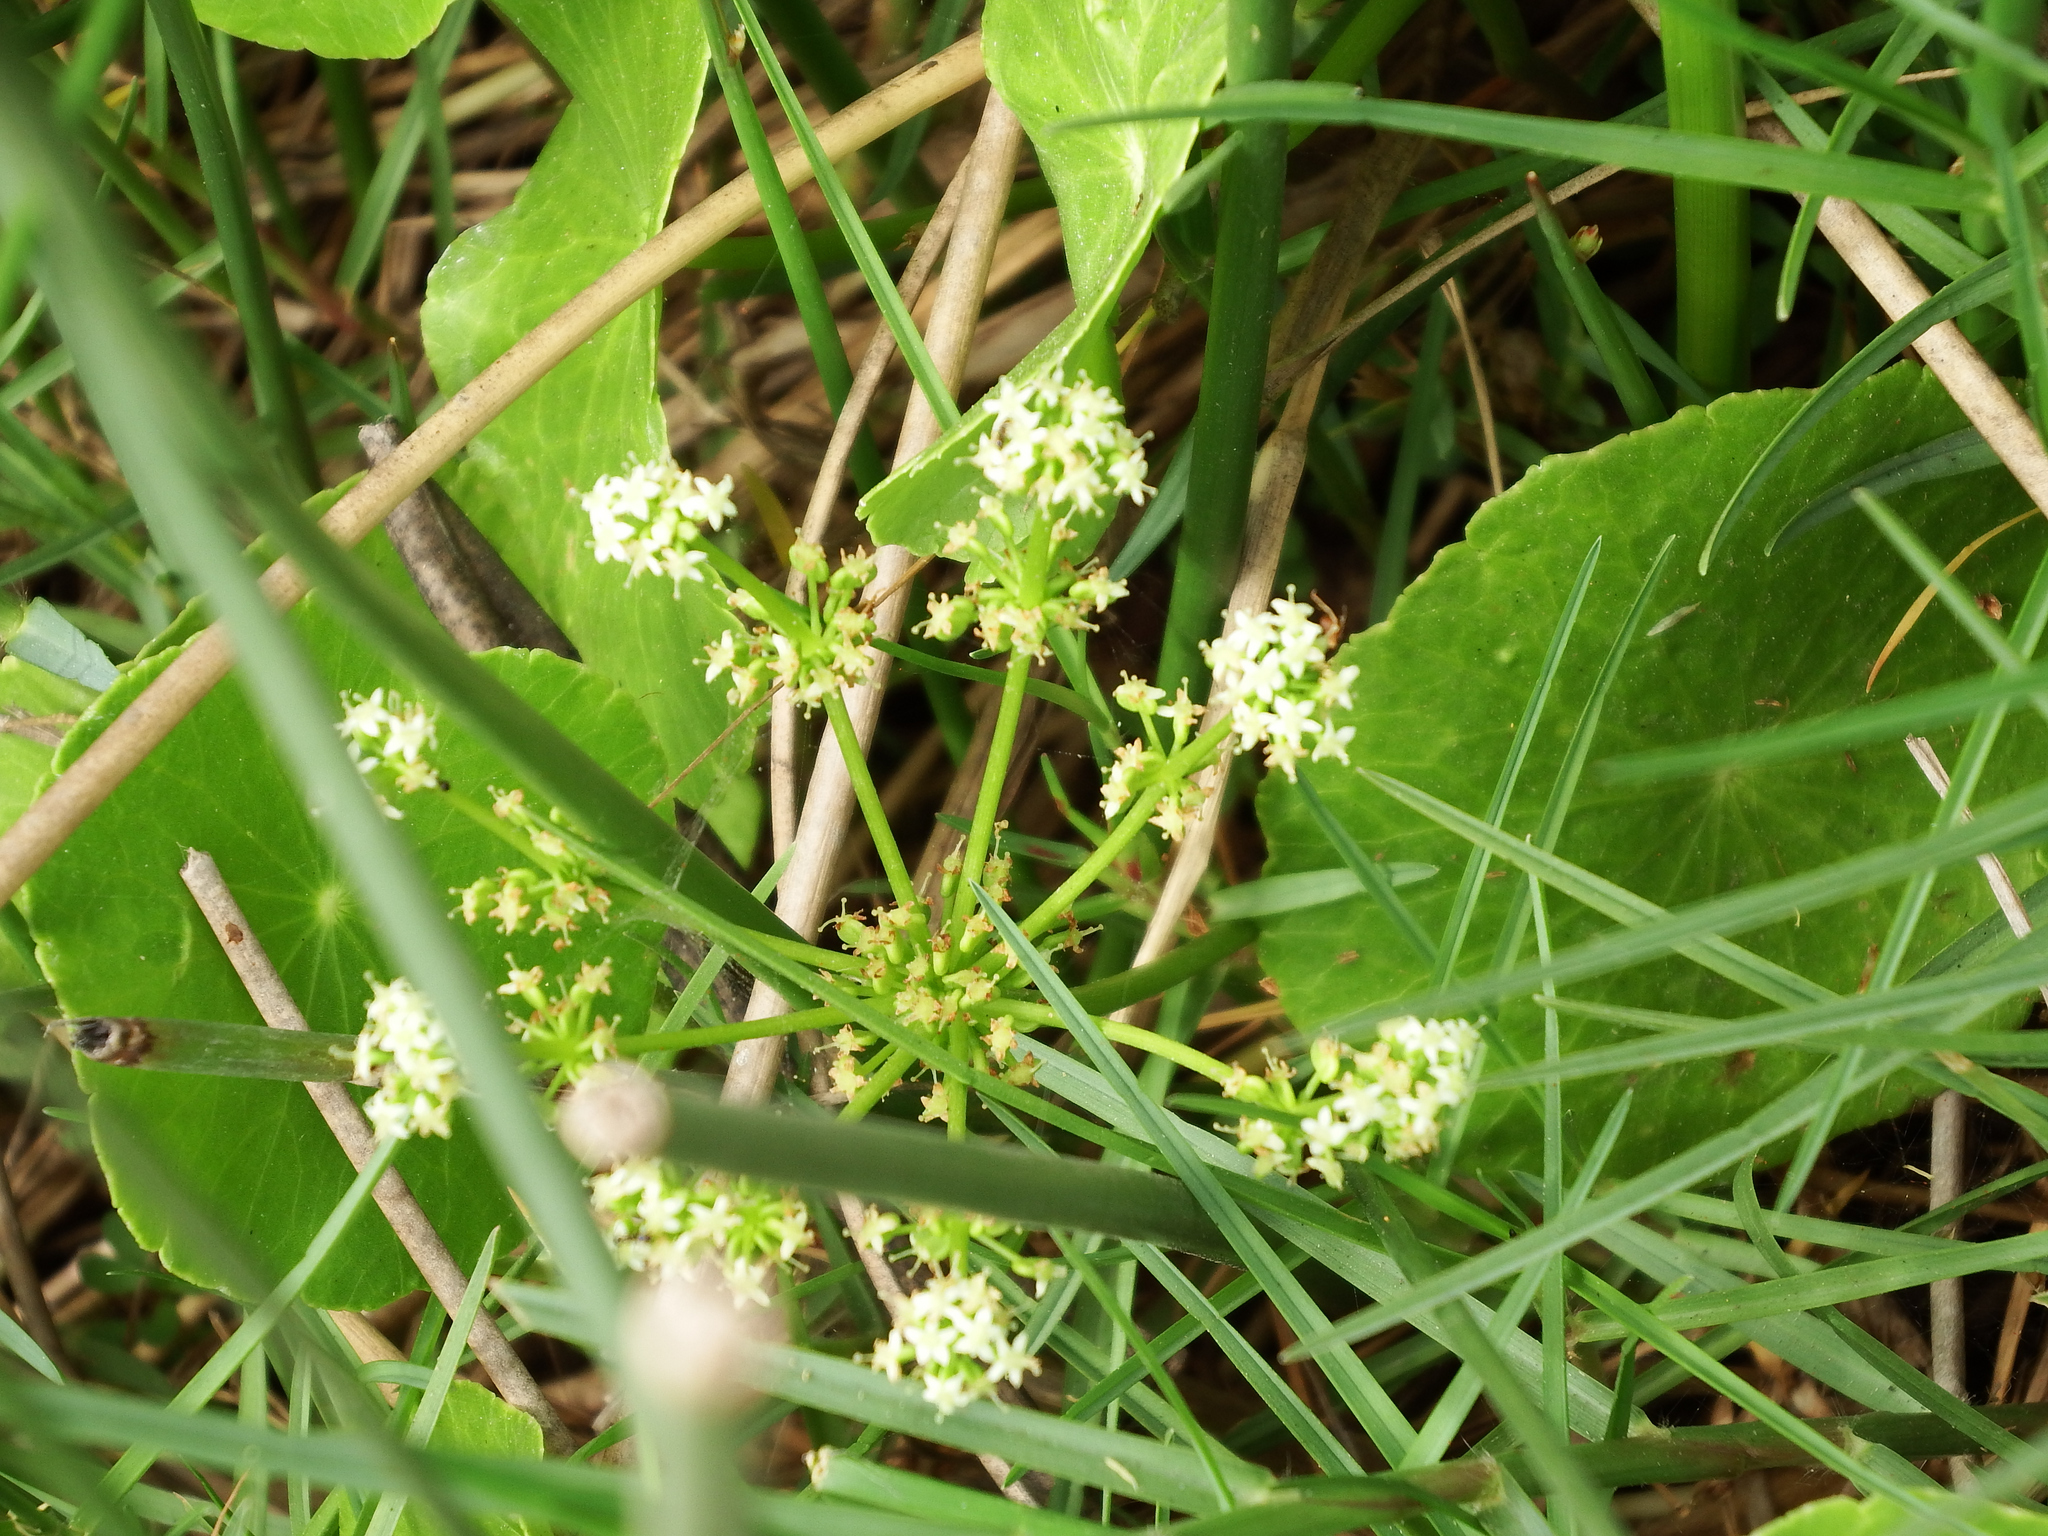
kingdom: Plantae
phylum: Tracheophyta
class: Magnoliopsida
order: Apiales
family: Araliaceae
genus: Hydrocotyle
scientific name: Hydrocotyle bonariensis
